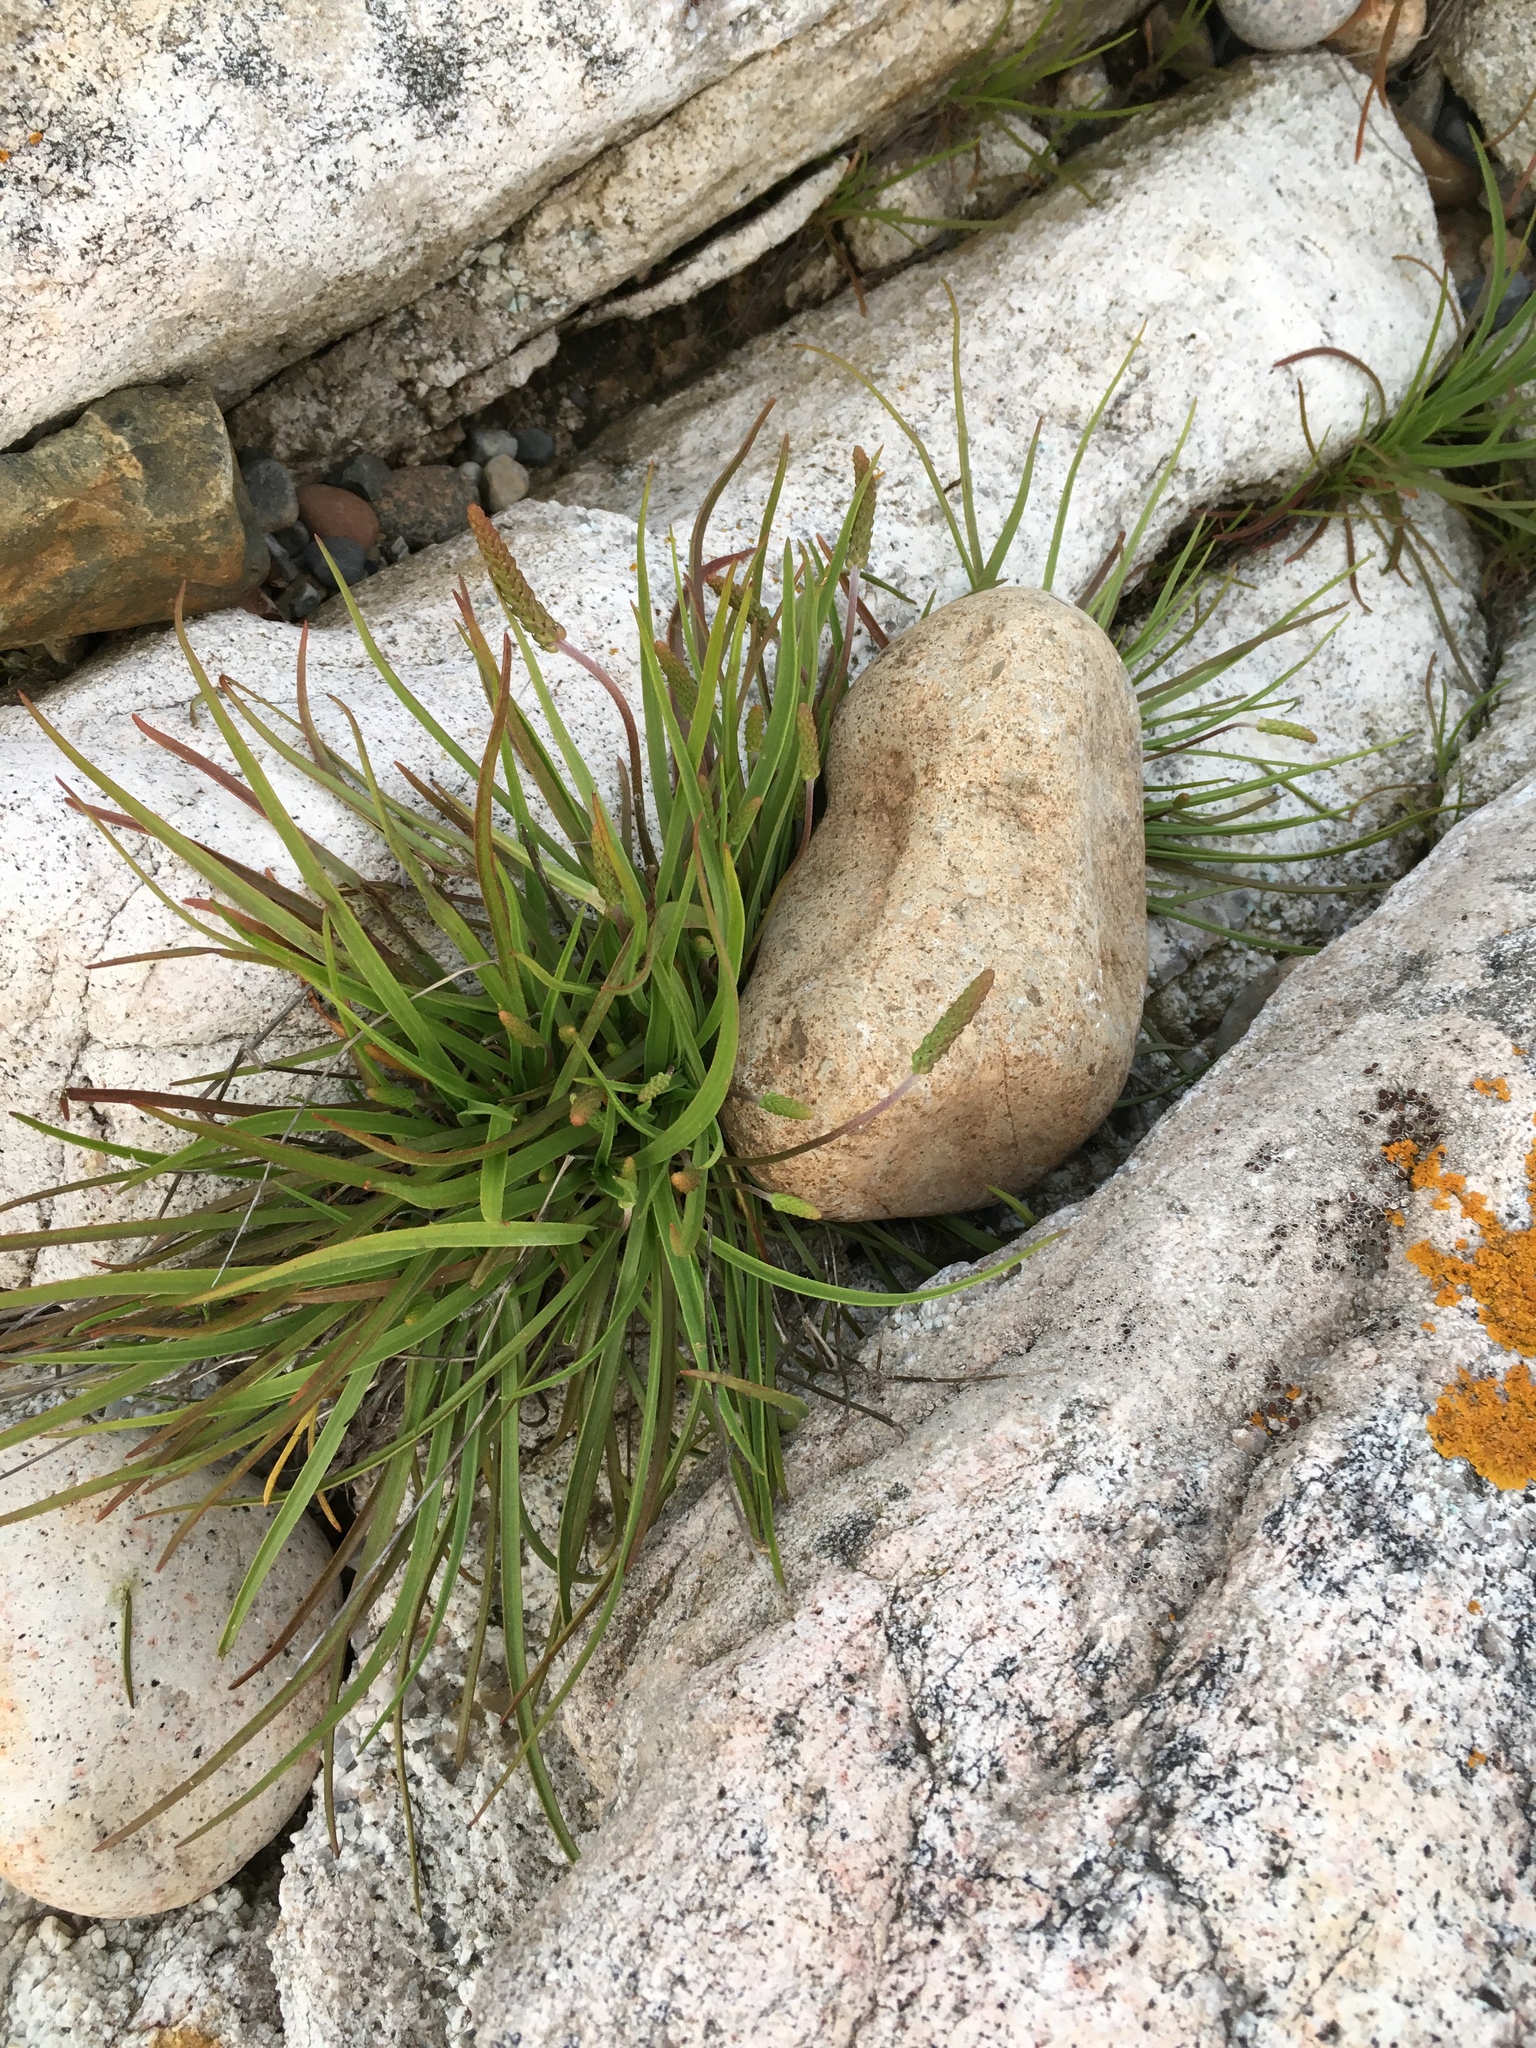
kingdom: Plantae
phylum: Tracheophyta
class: Magnoliopsida
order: Lamiales
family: Plantaginaceae
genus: Plantago
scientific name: Plantago maritima
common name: Sea plantain
